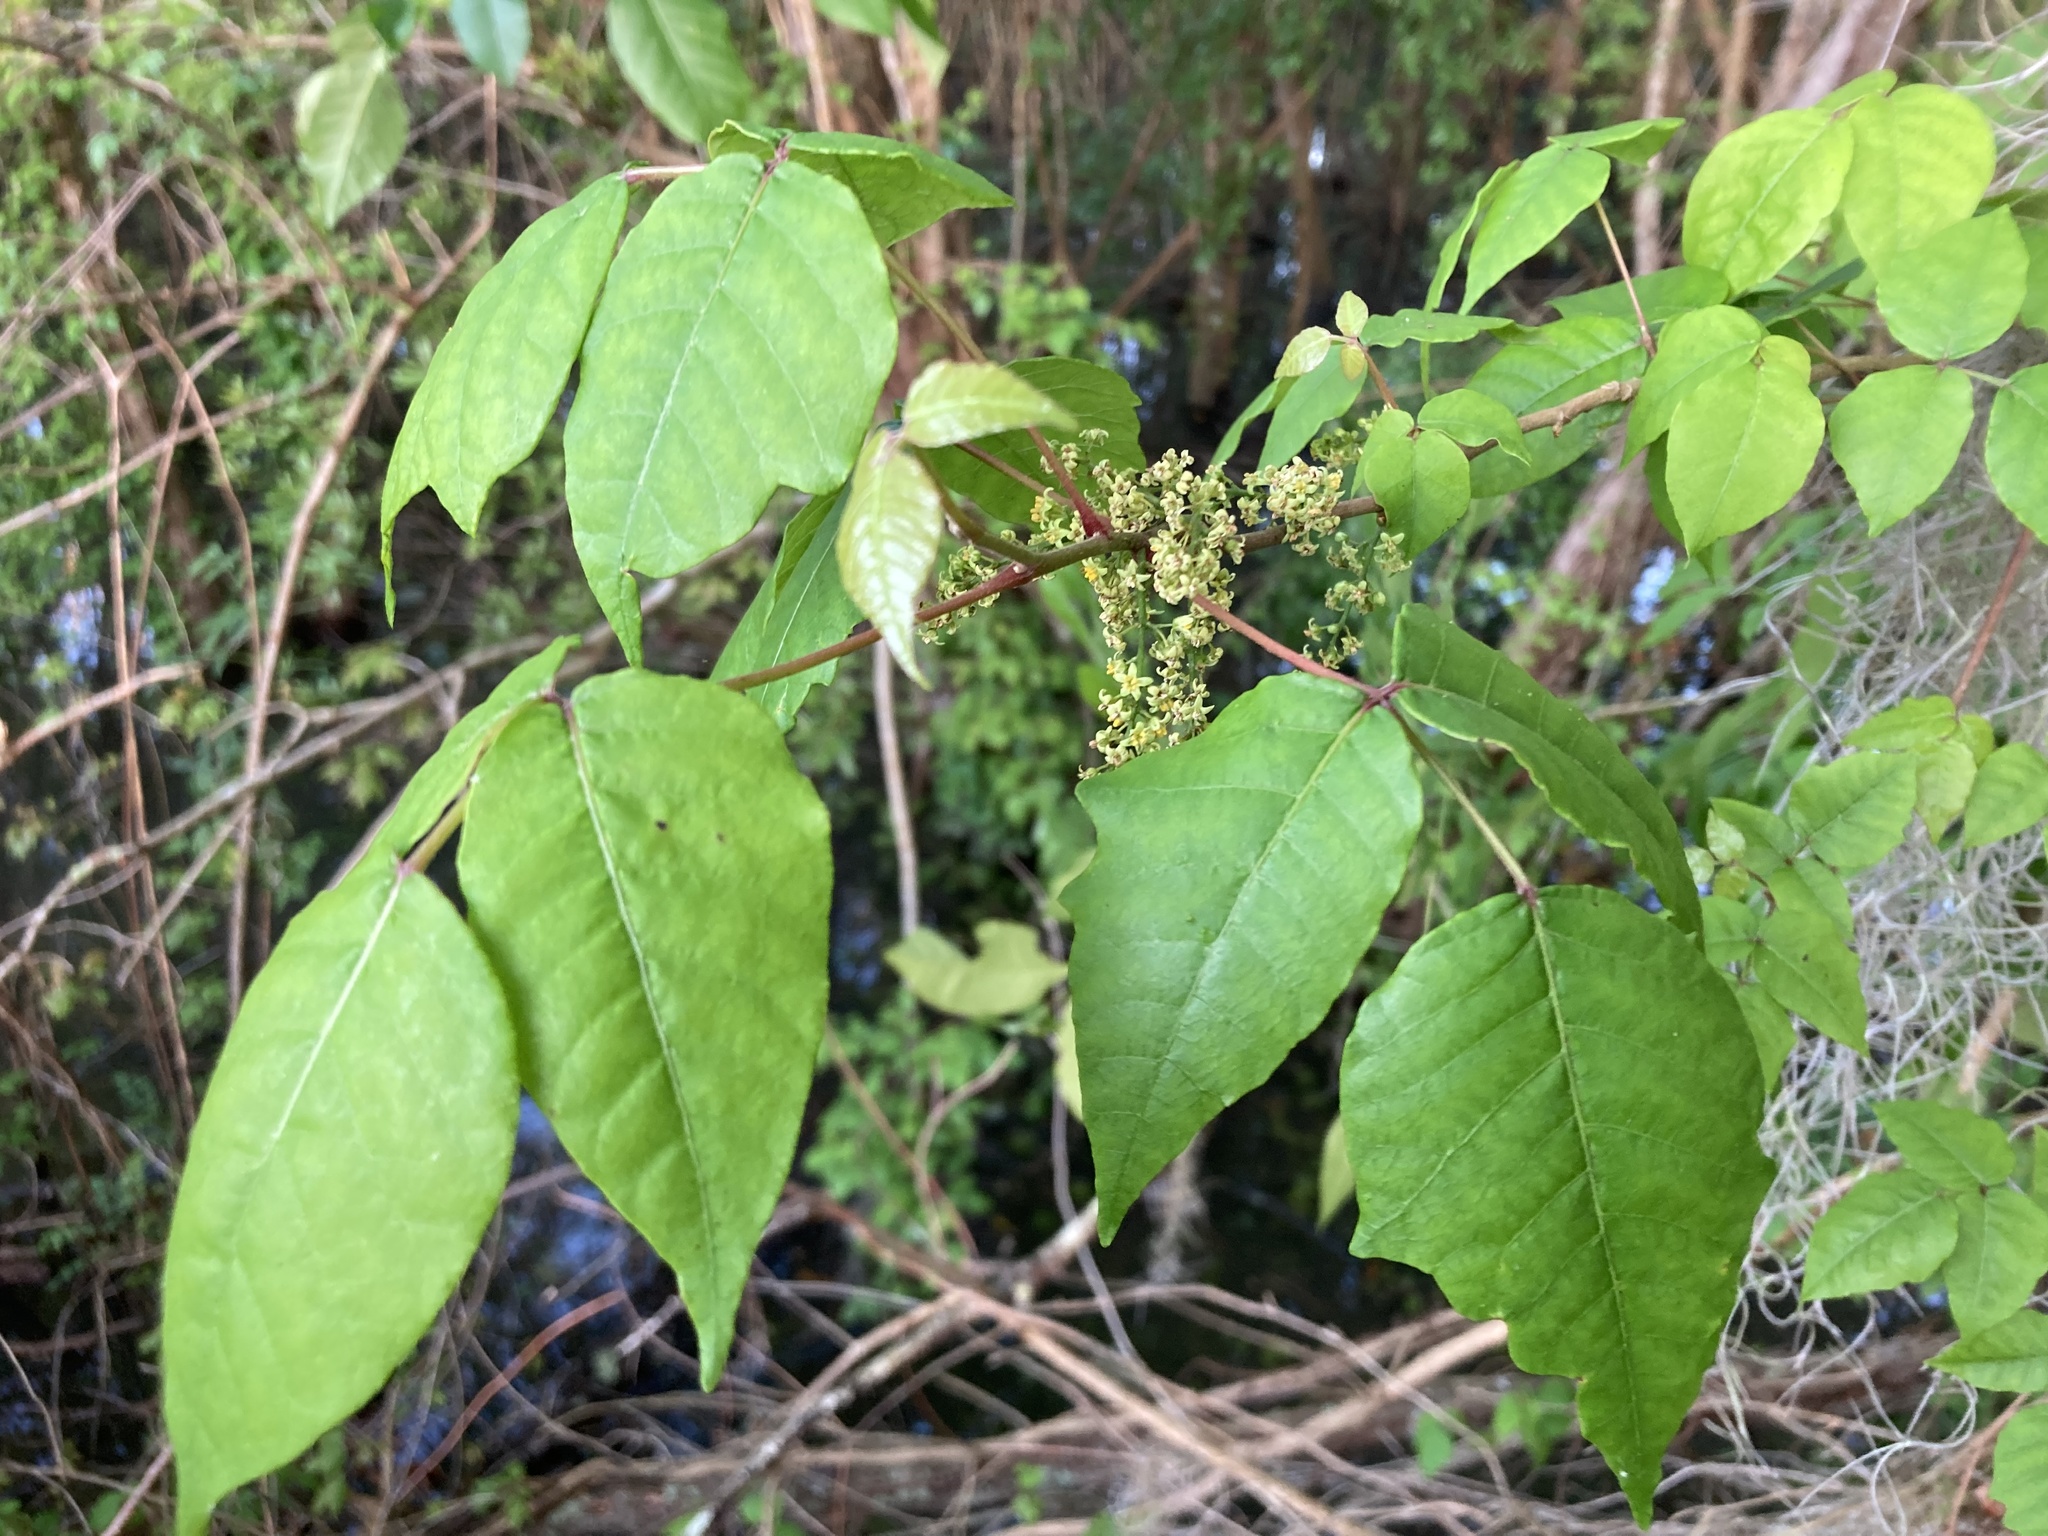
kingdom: Plantae
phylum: Tracheophyta
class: Magnoliopsida
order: Sapindales
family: Anacardiaceae
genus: Toxicodendron
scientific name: Toxicodendron radicans
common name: Poison ivy
